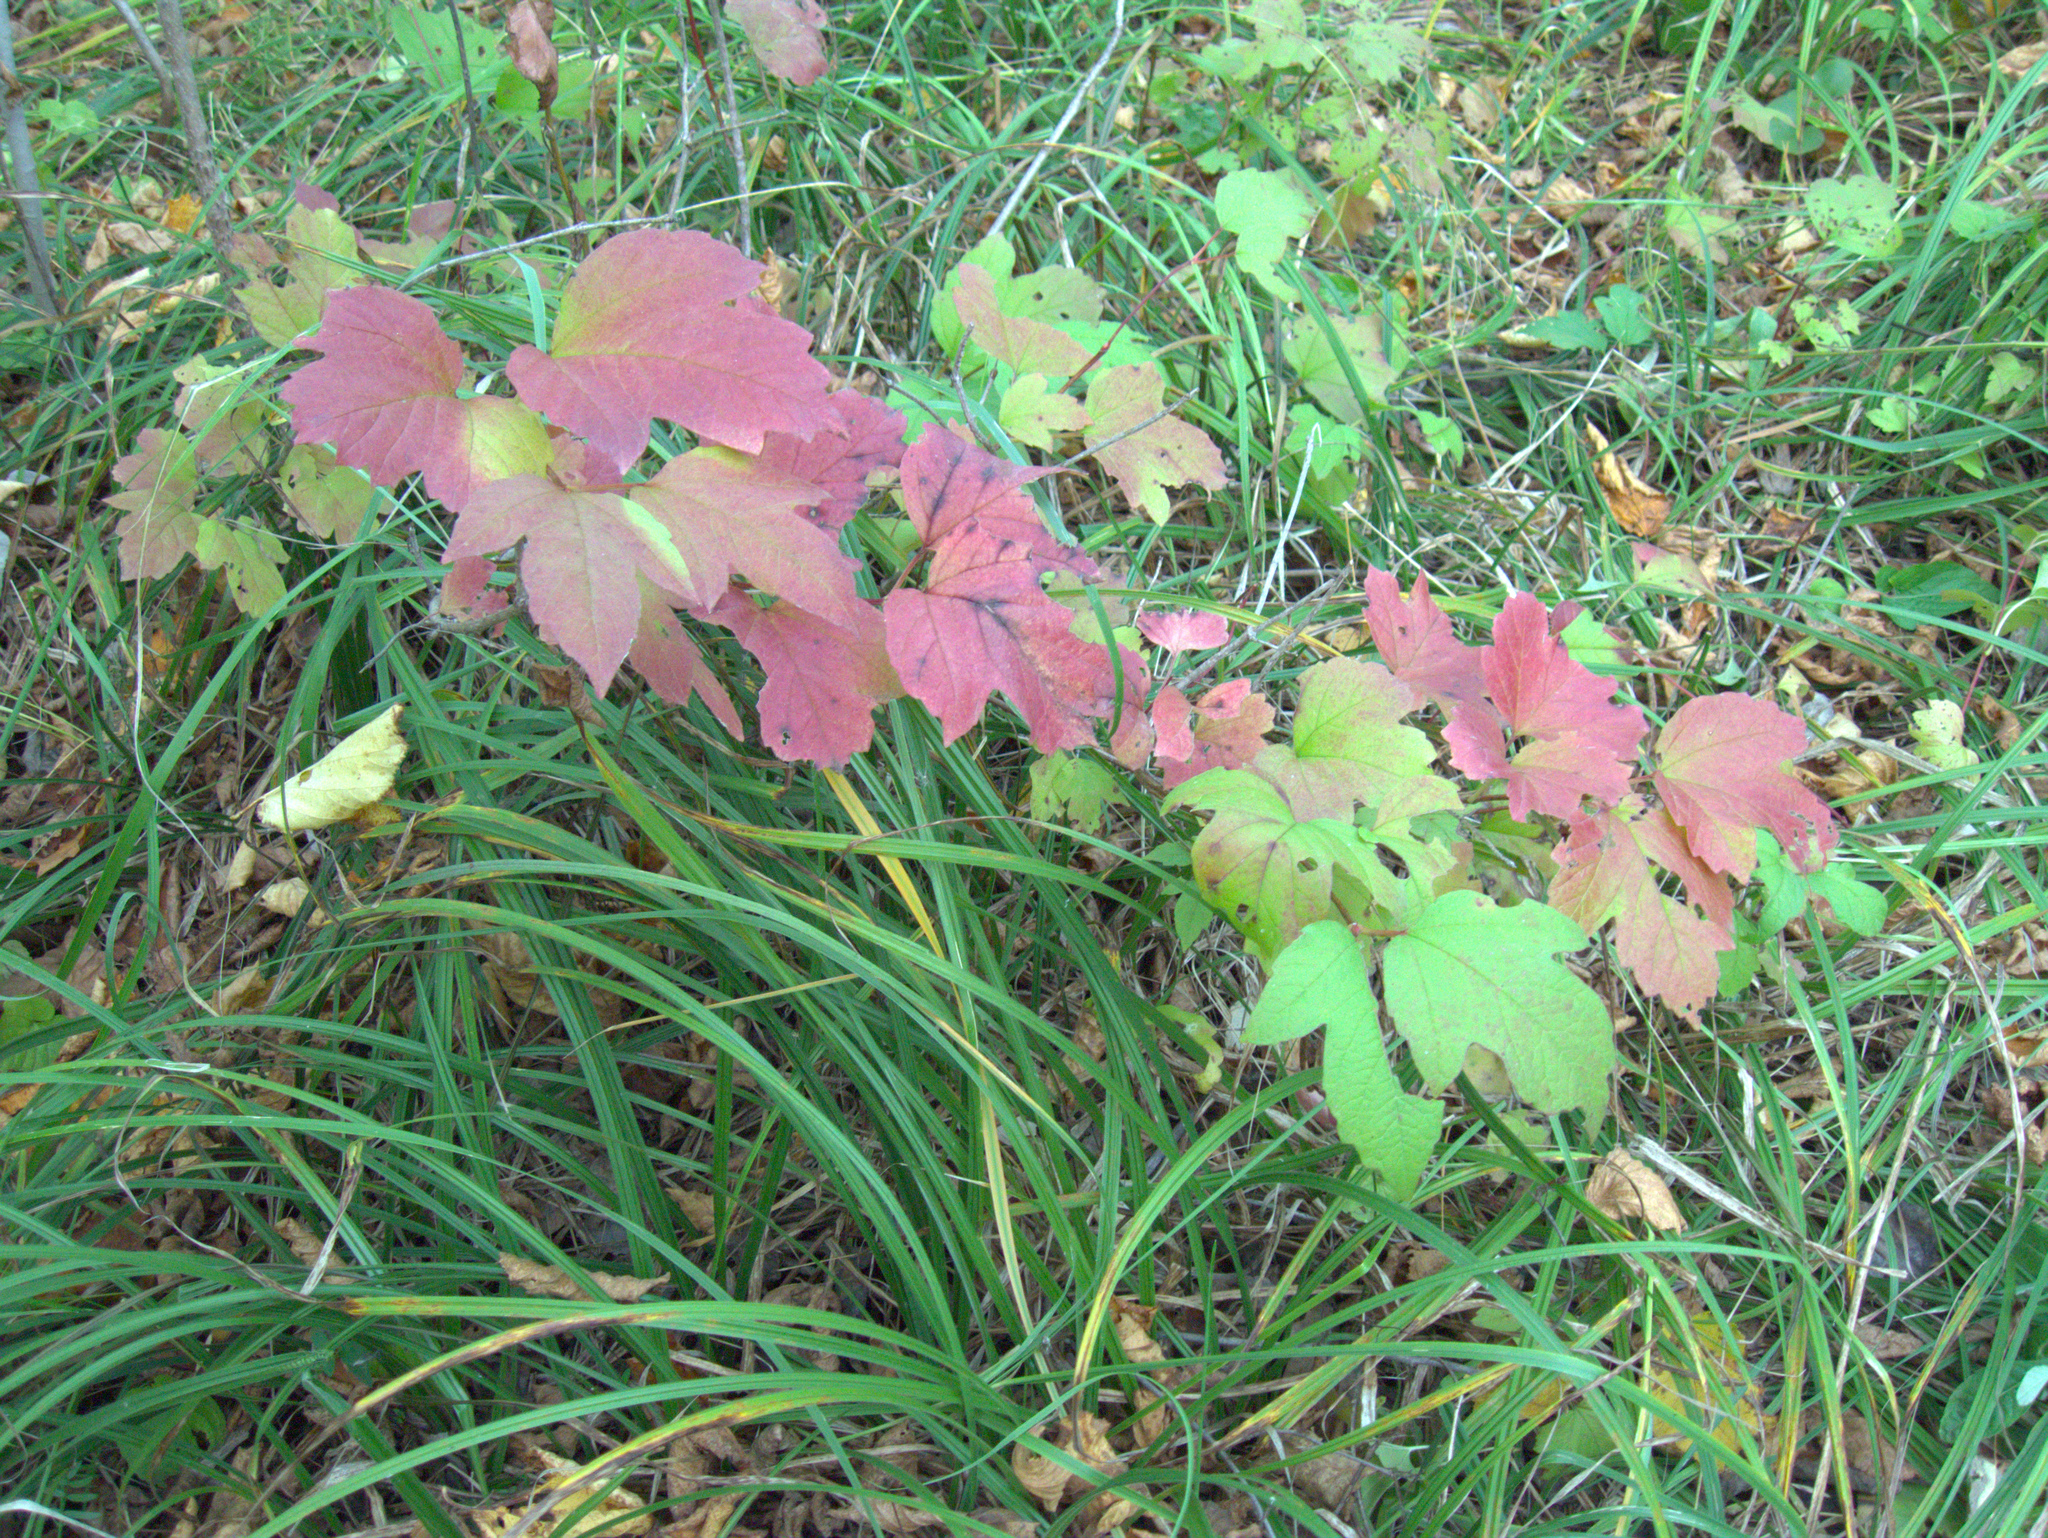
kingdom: Plantae
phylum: Tracheophyta
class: Magnoliopsida
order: Dipsacales
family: Viburnaceae
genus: Viburnum
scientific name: Viburnum opulus
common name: Guelder-rose
